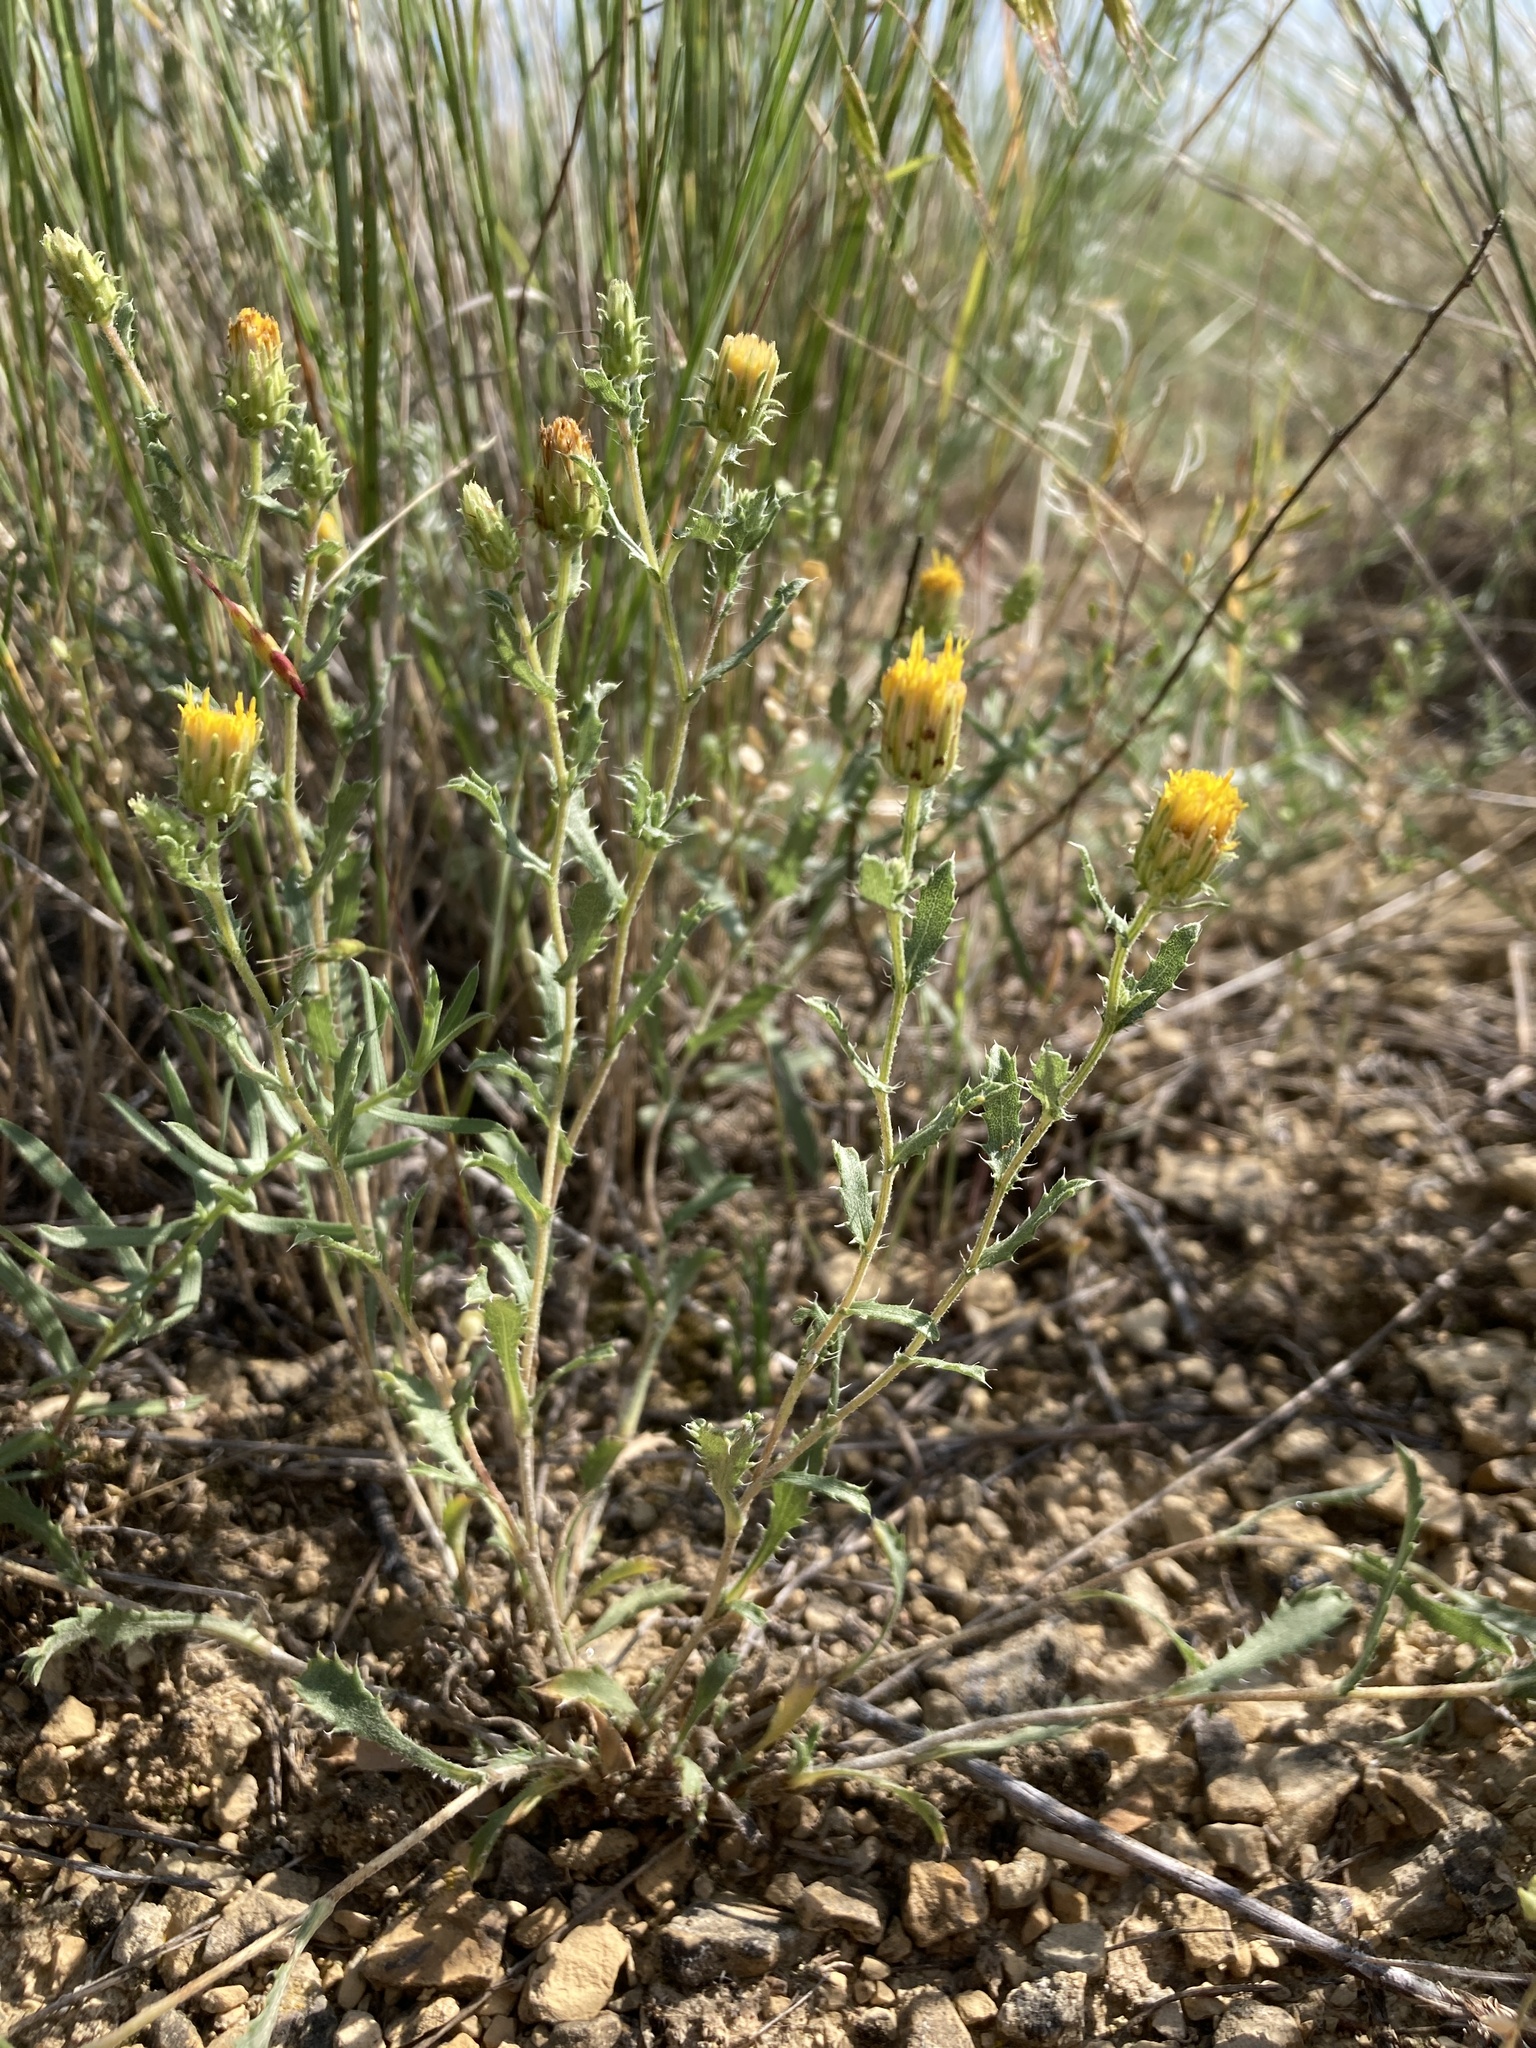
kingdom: Plantae
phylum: Tracheophyta
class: Magnoliopsida
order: Asterales
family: Asteraceae
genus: Xanthisma
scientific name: Xanthisma grindelioides
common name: Goldenweed
